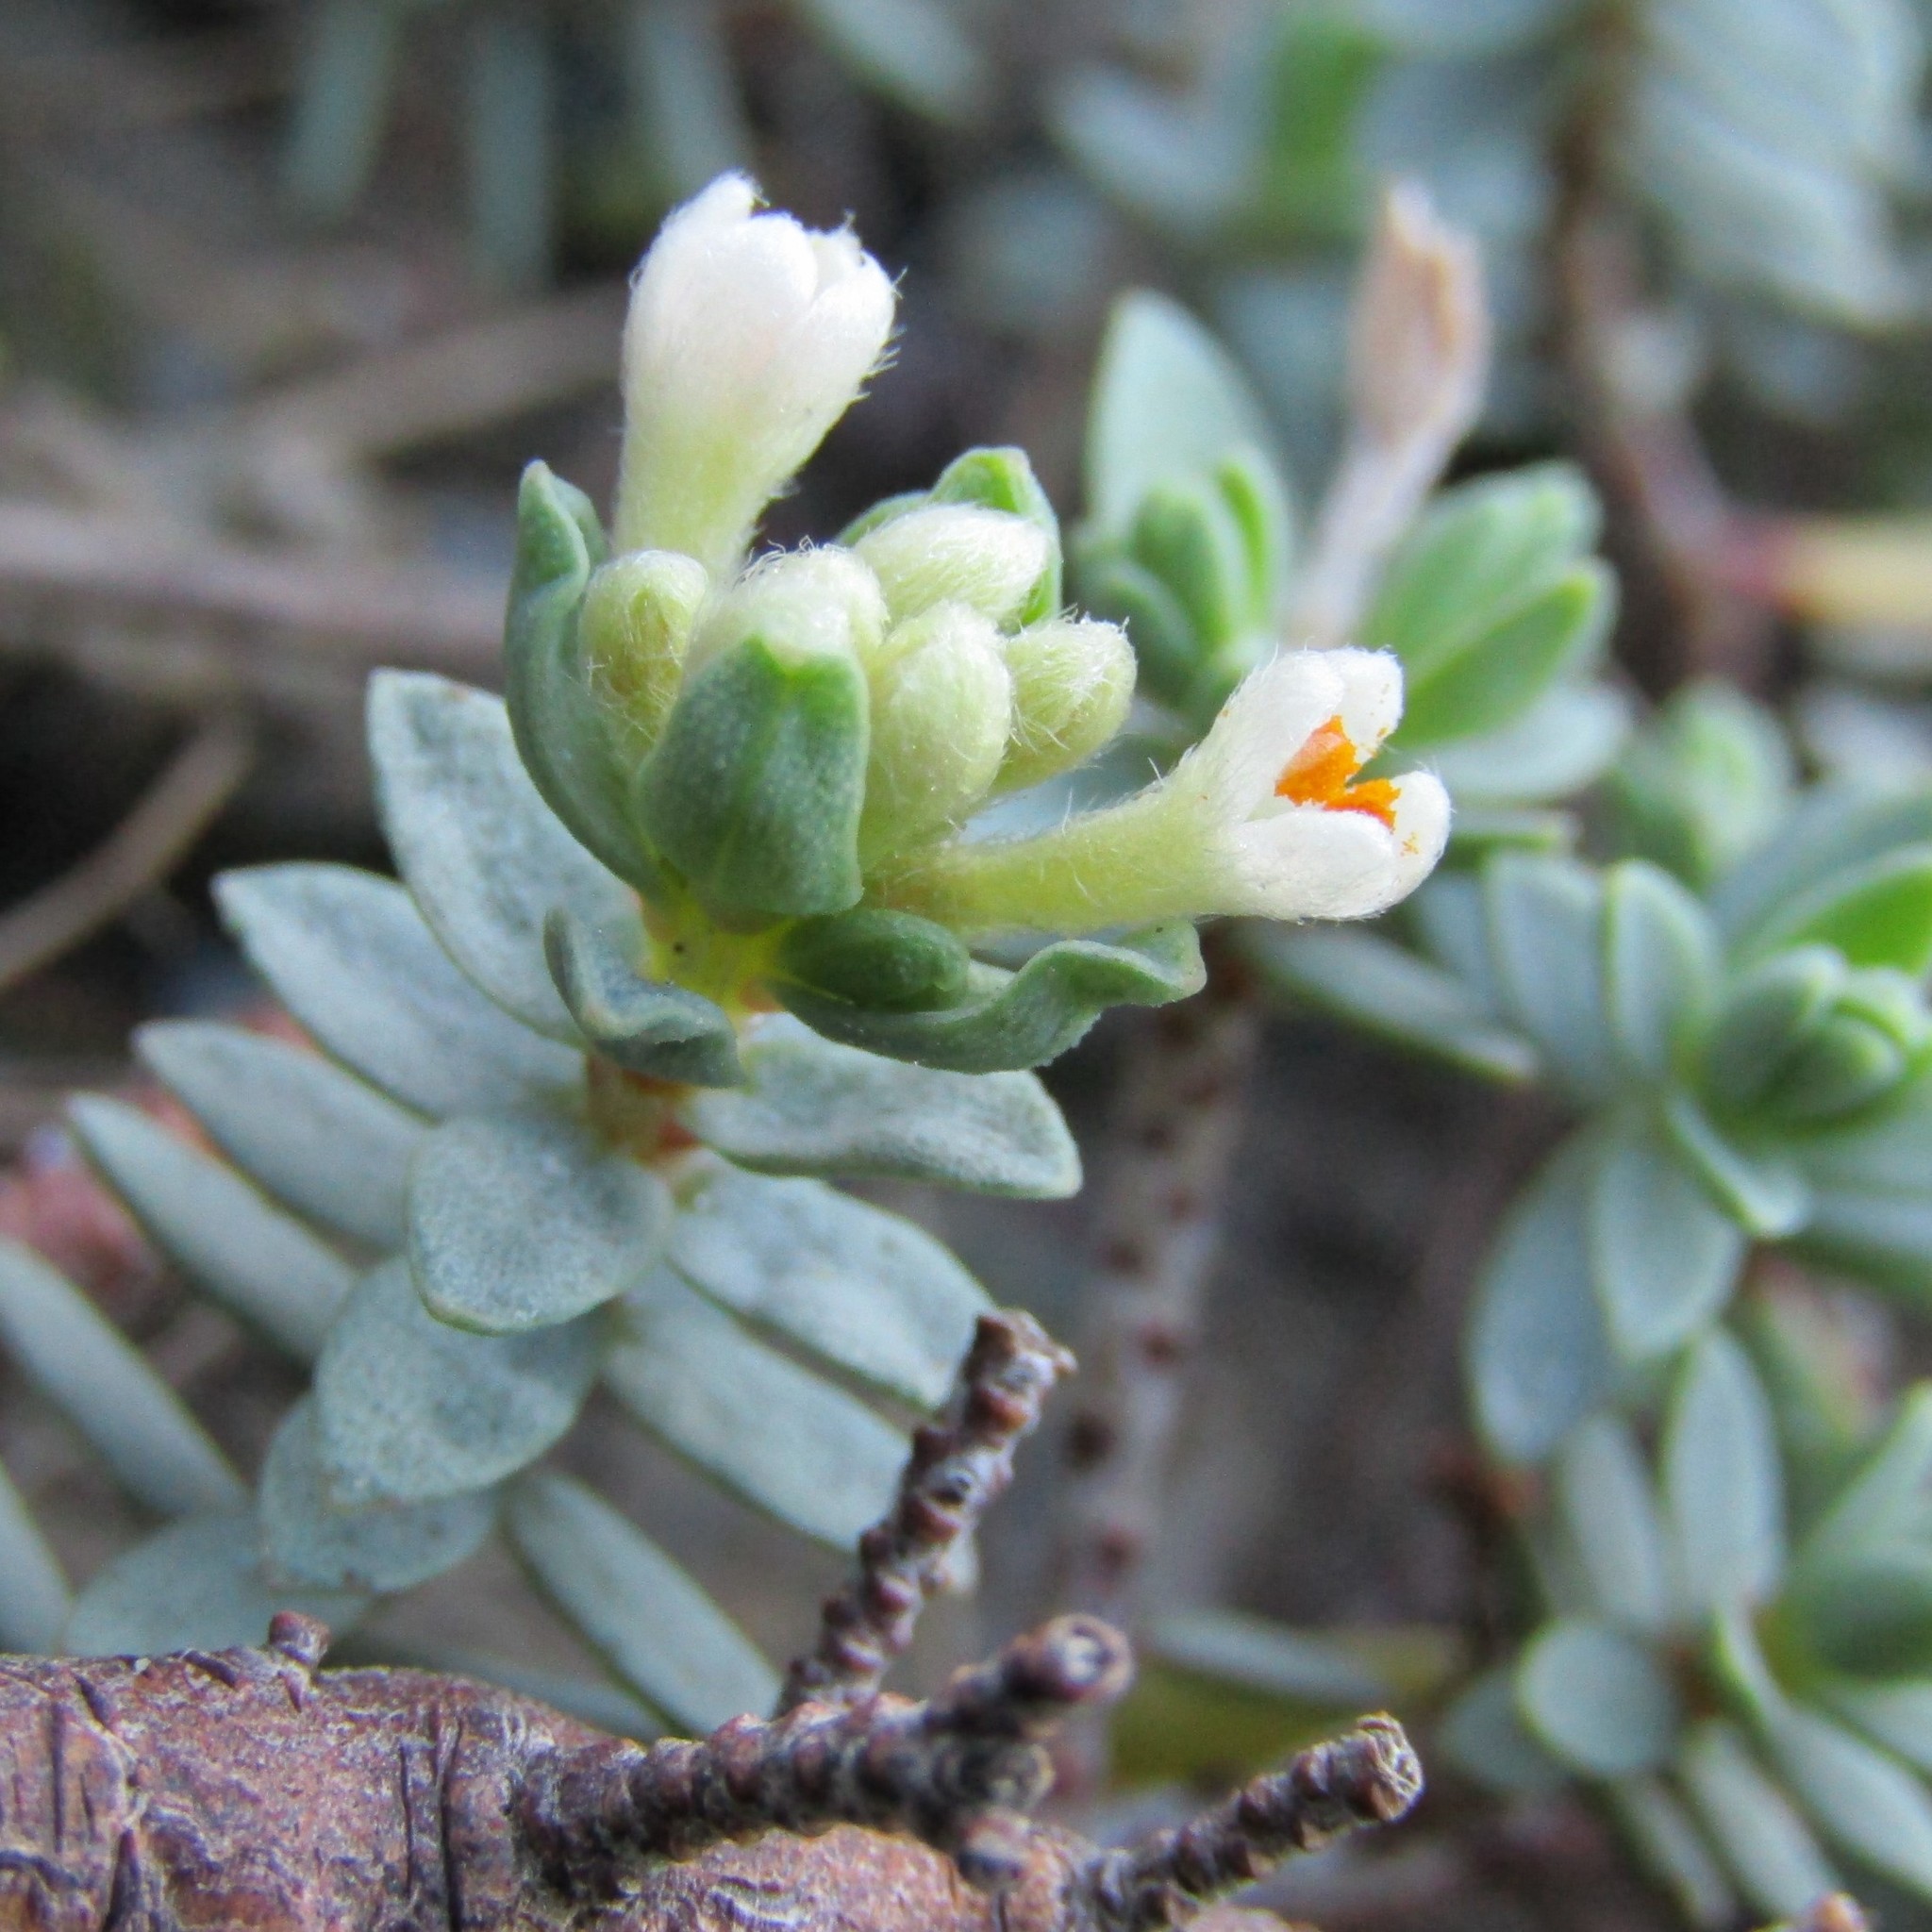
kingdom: Plantae
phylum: Tracheophyta
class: Magnoliopsida
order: Malvales
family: Thymelaeaceae
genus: Pimelea
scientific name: Pimelea prostrata
